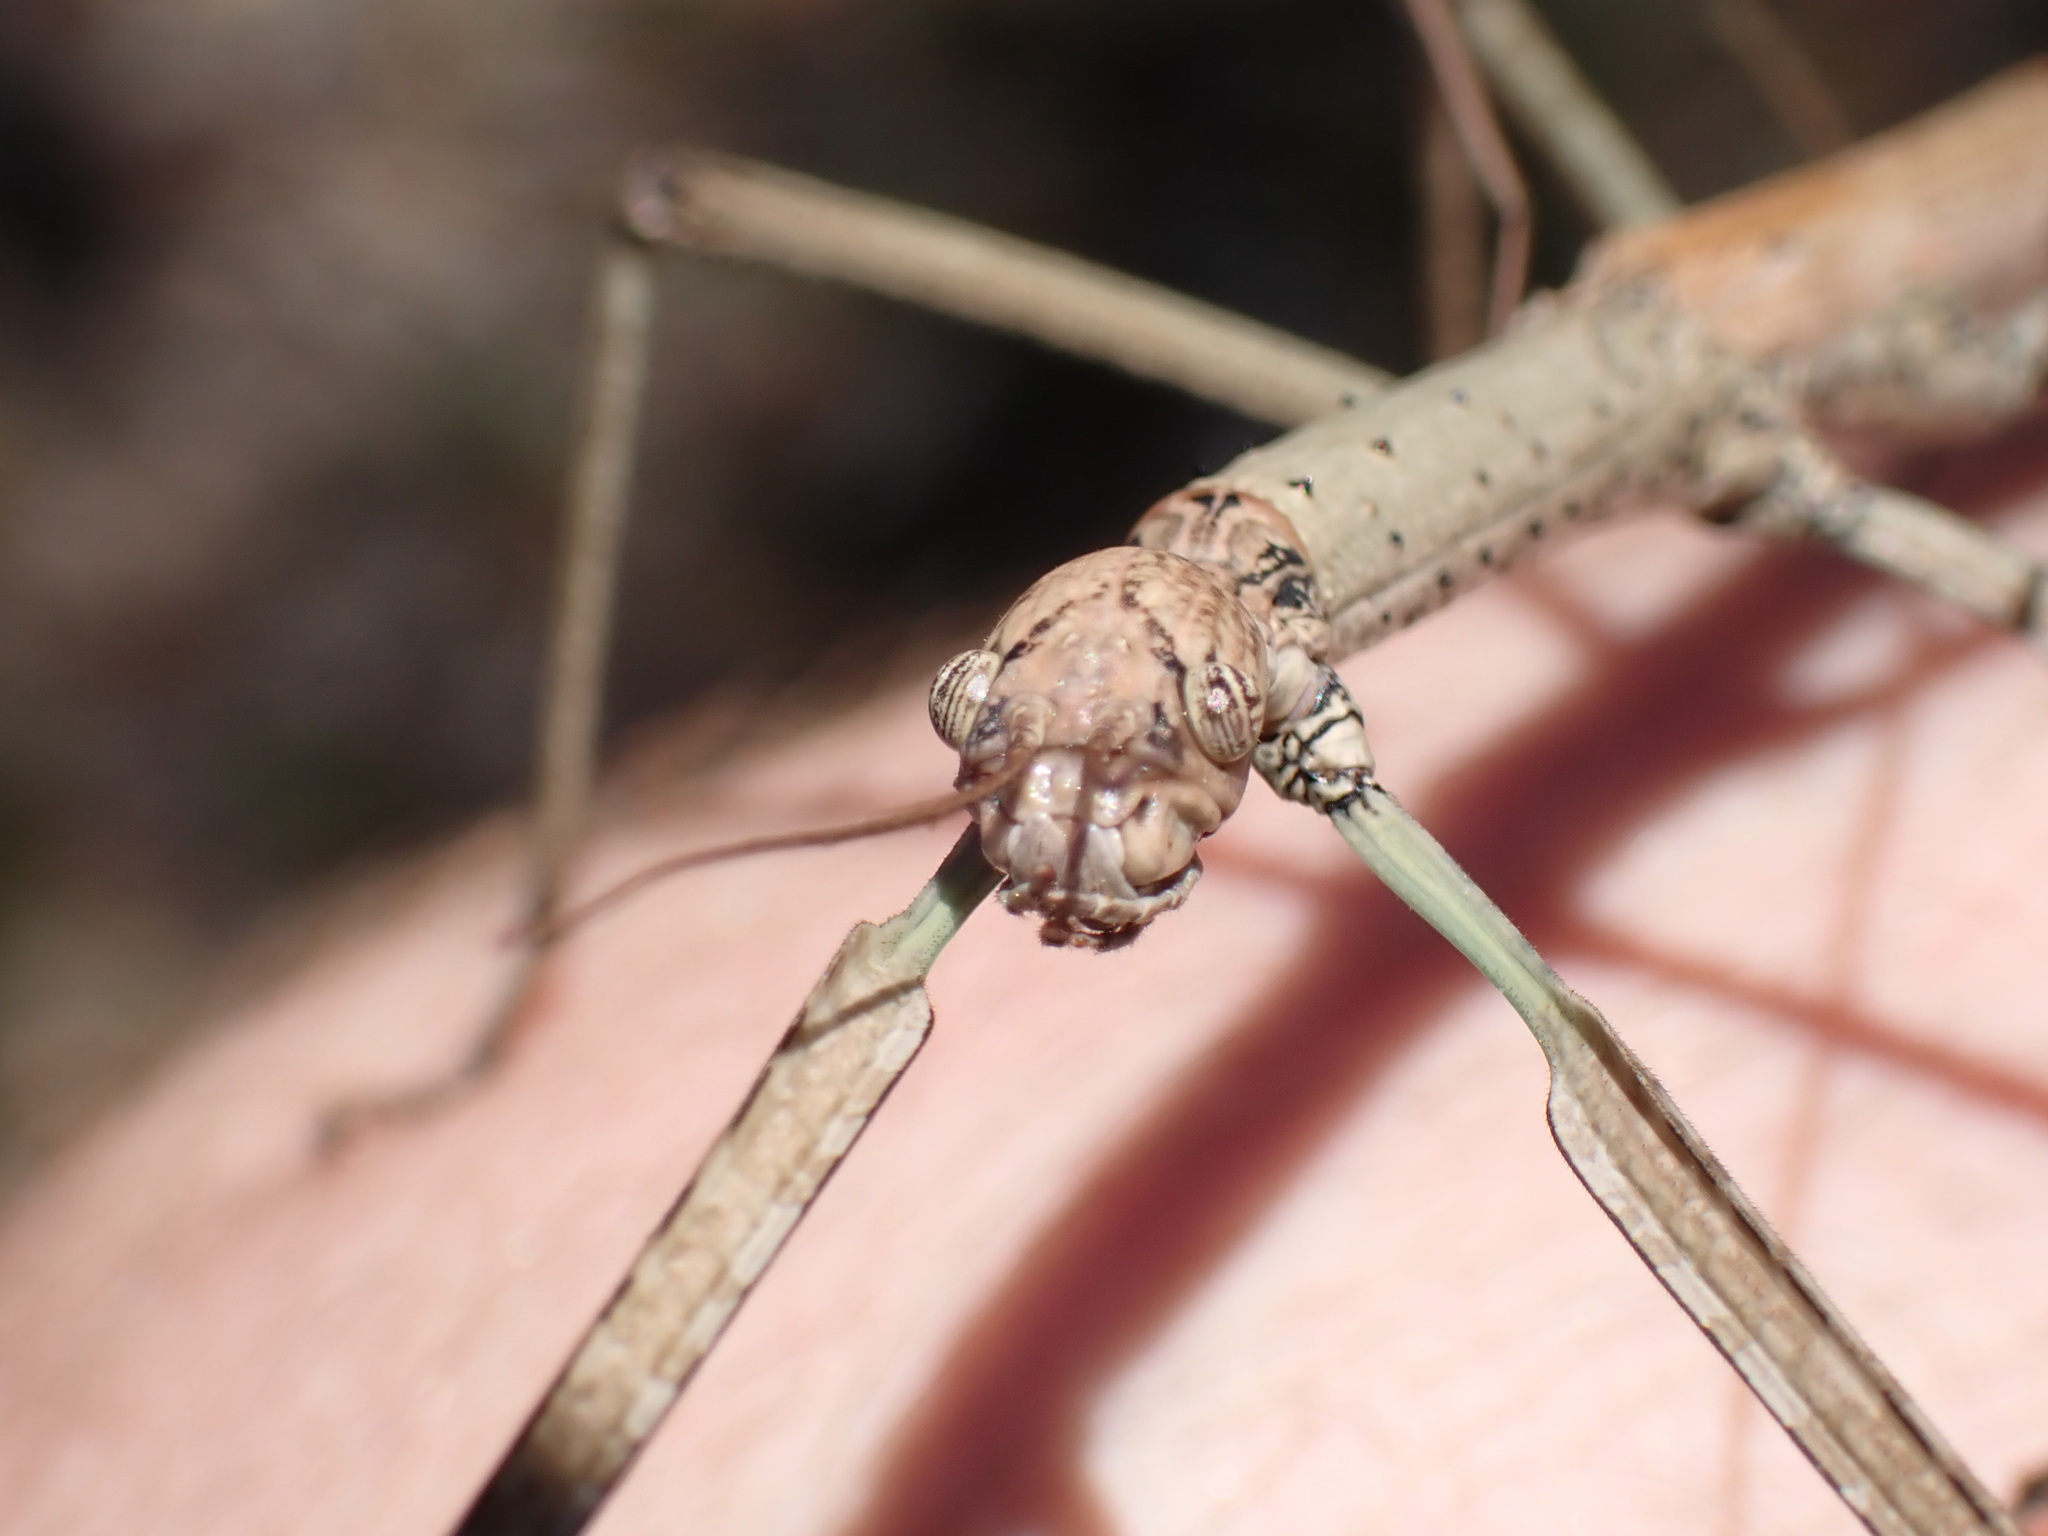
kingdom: Animalia
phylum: Arthropoda
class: Insecta
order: Phasmida
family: Phasmatidae
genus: Anchiale
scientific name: Anchiale austrotessulata
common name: Tessellated stick-insect
